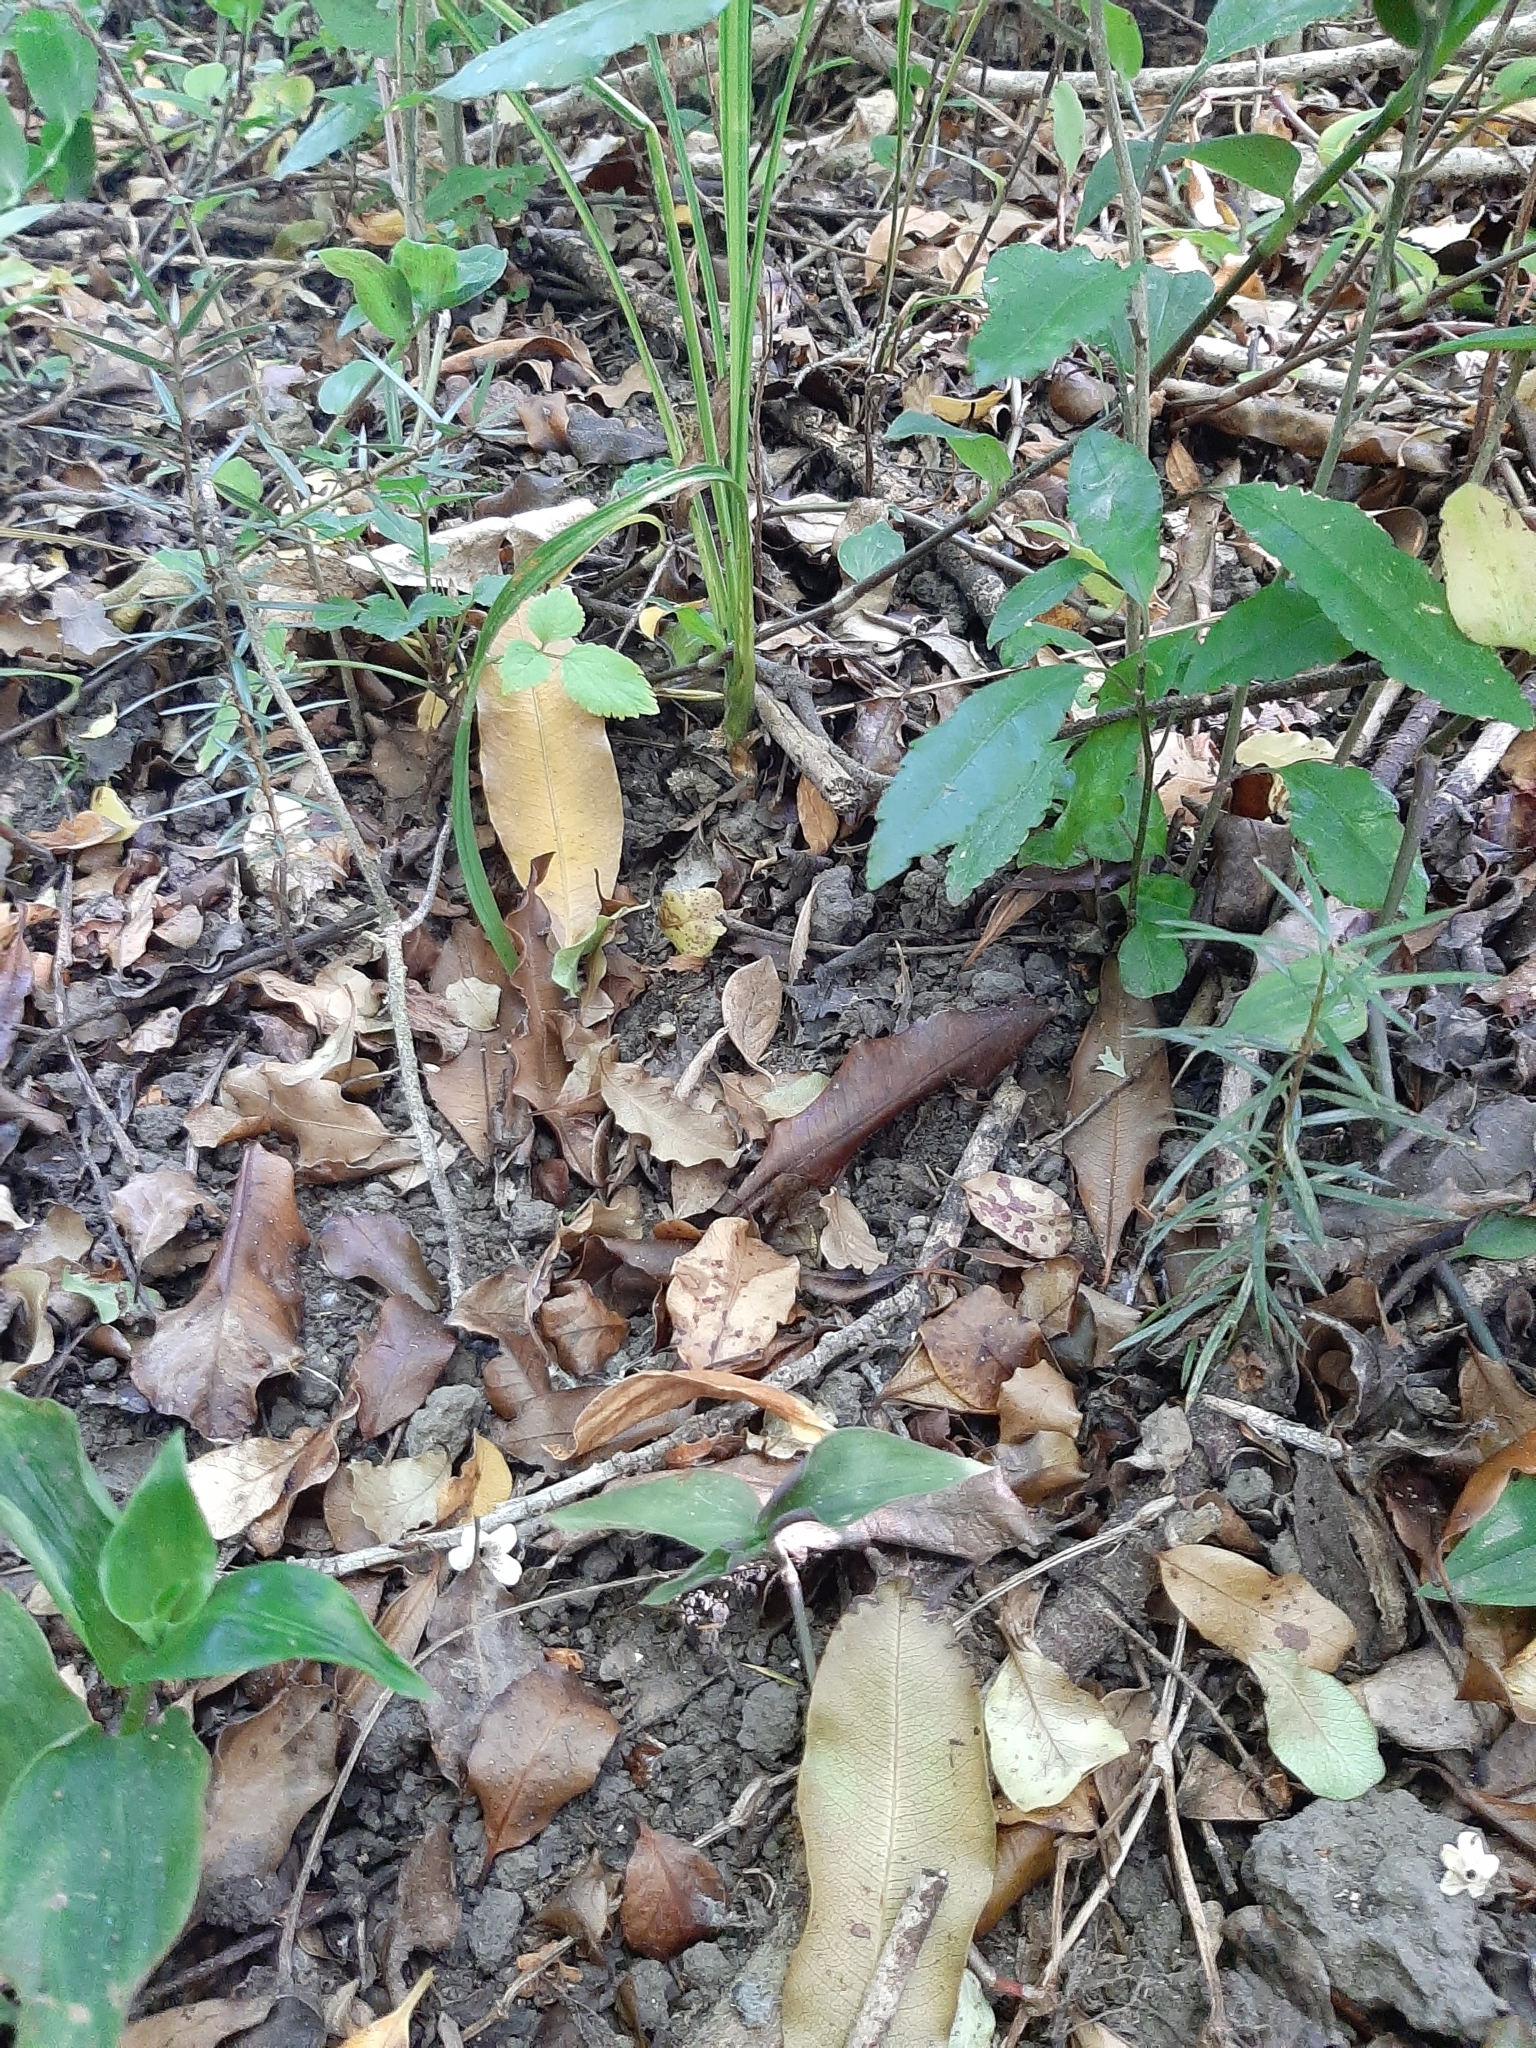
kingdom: Plantae
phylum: Tracheophyta
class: Pinopsida
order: Pinales
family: Podocarpaceae
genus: Podocarpus
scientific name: Podocarpus totara
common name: Totara
